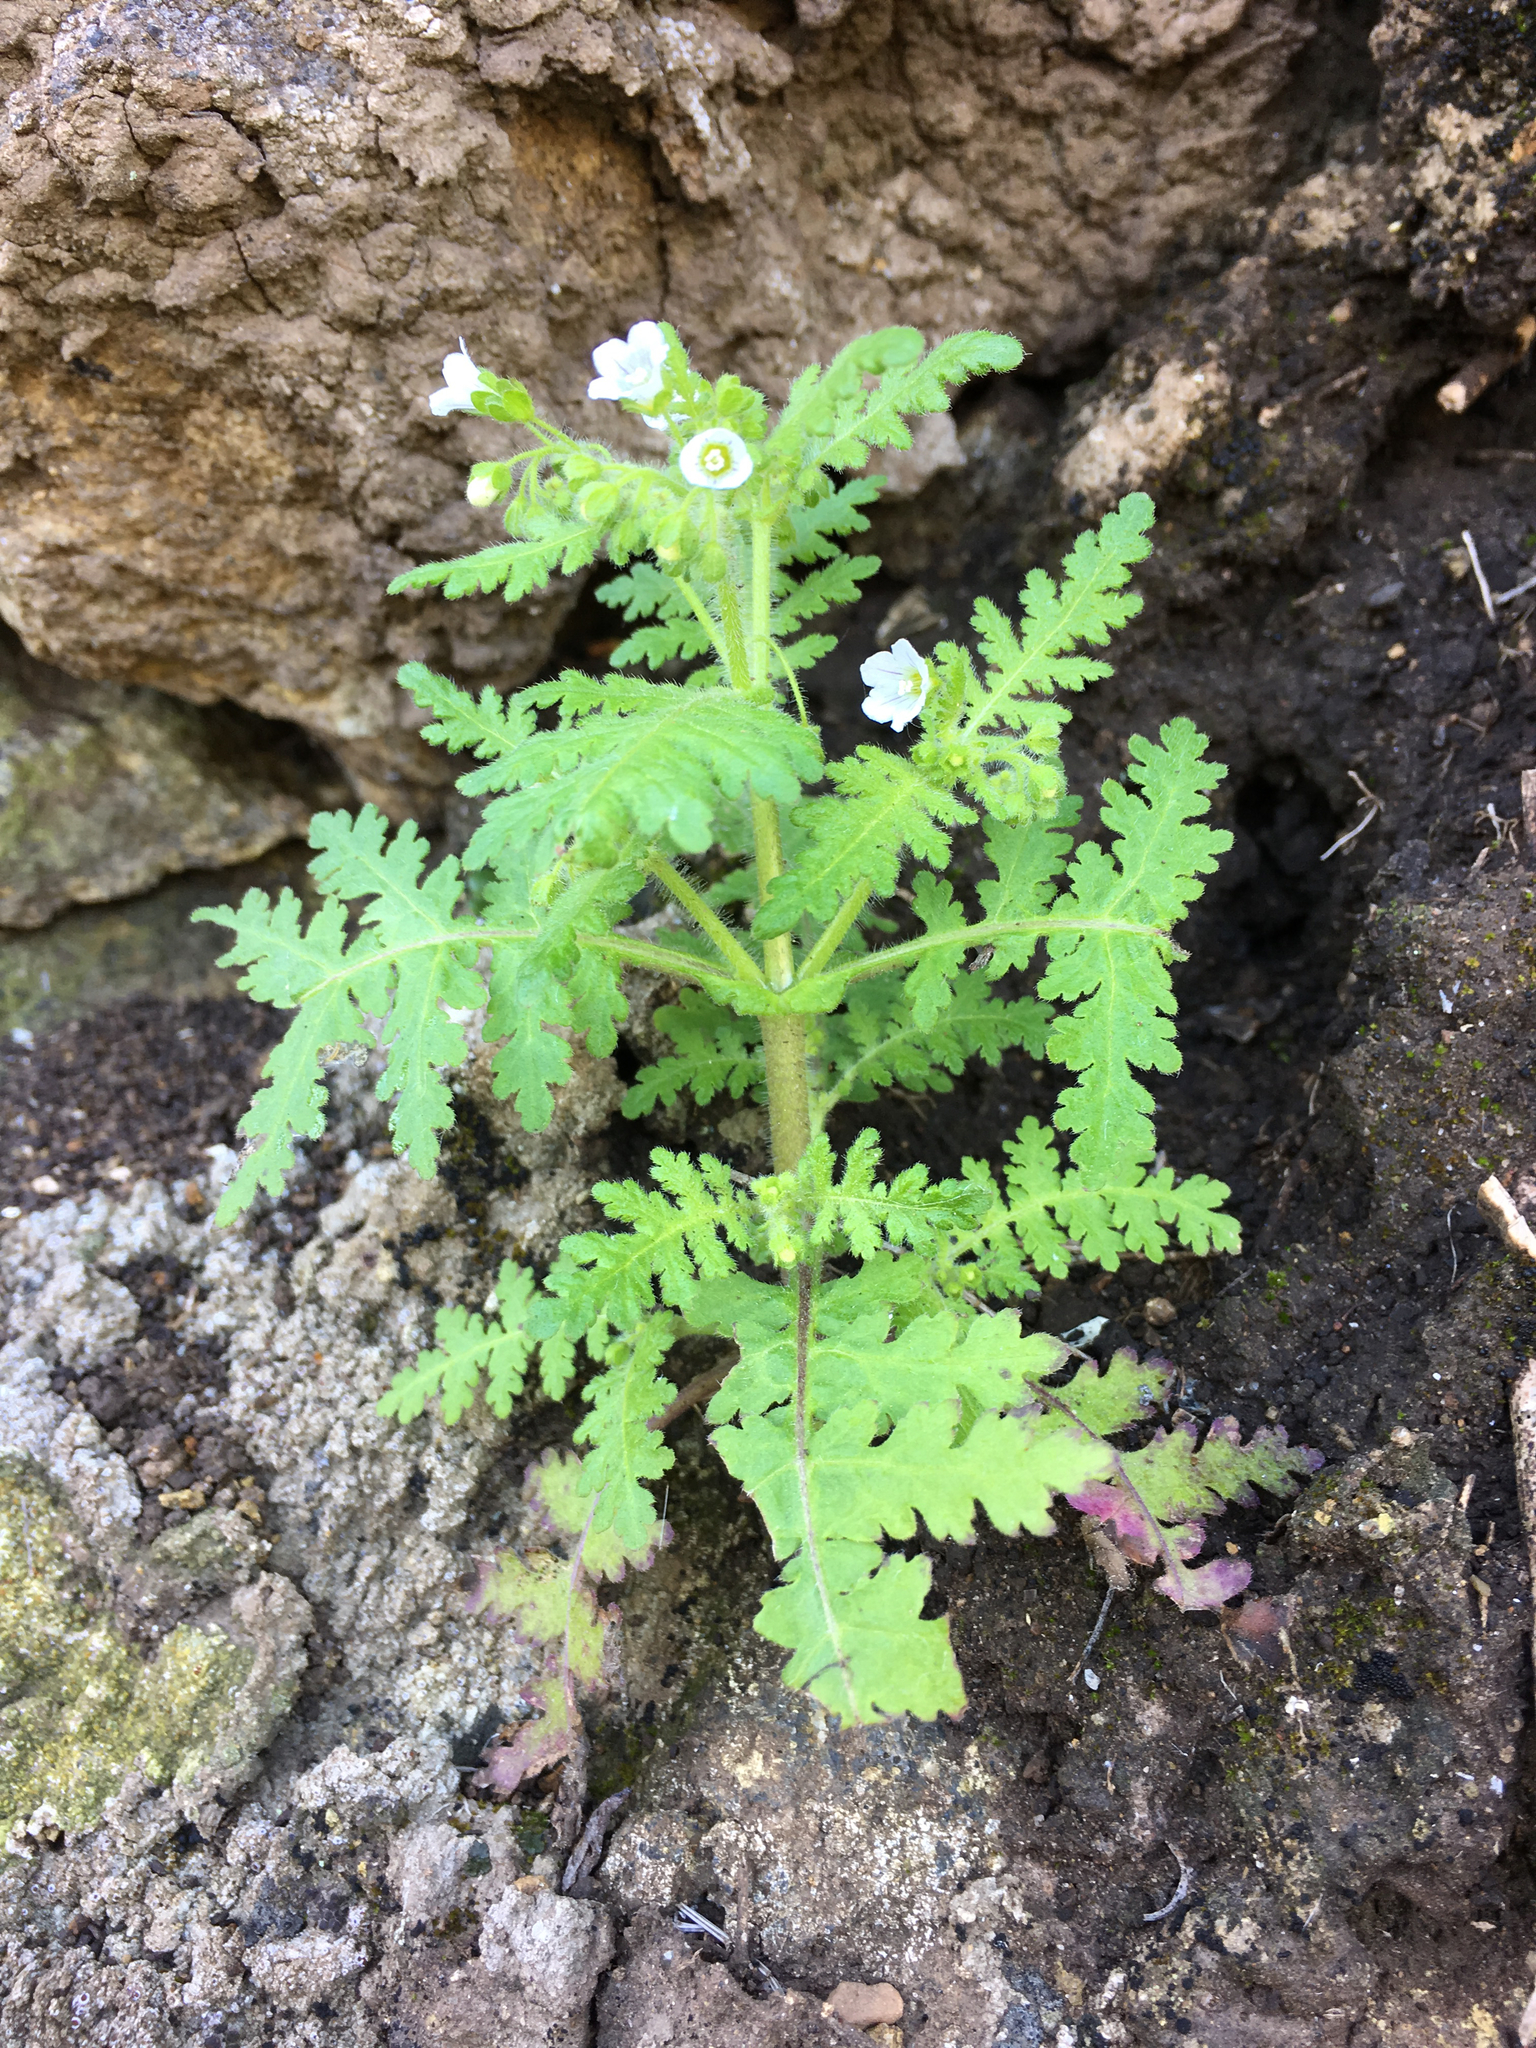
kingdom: Plantae
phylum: Tracheophyta
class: Magnoliopsida
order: Boraginales
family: Hydrophyllaceae
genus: Eucrypta
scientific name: Eucrypta chrysanthemifolia
